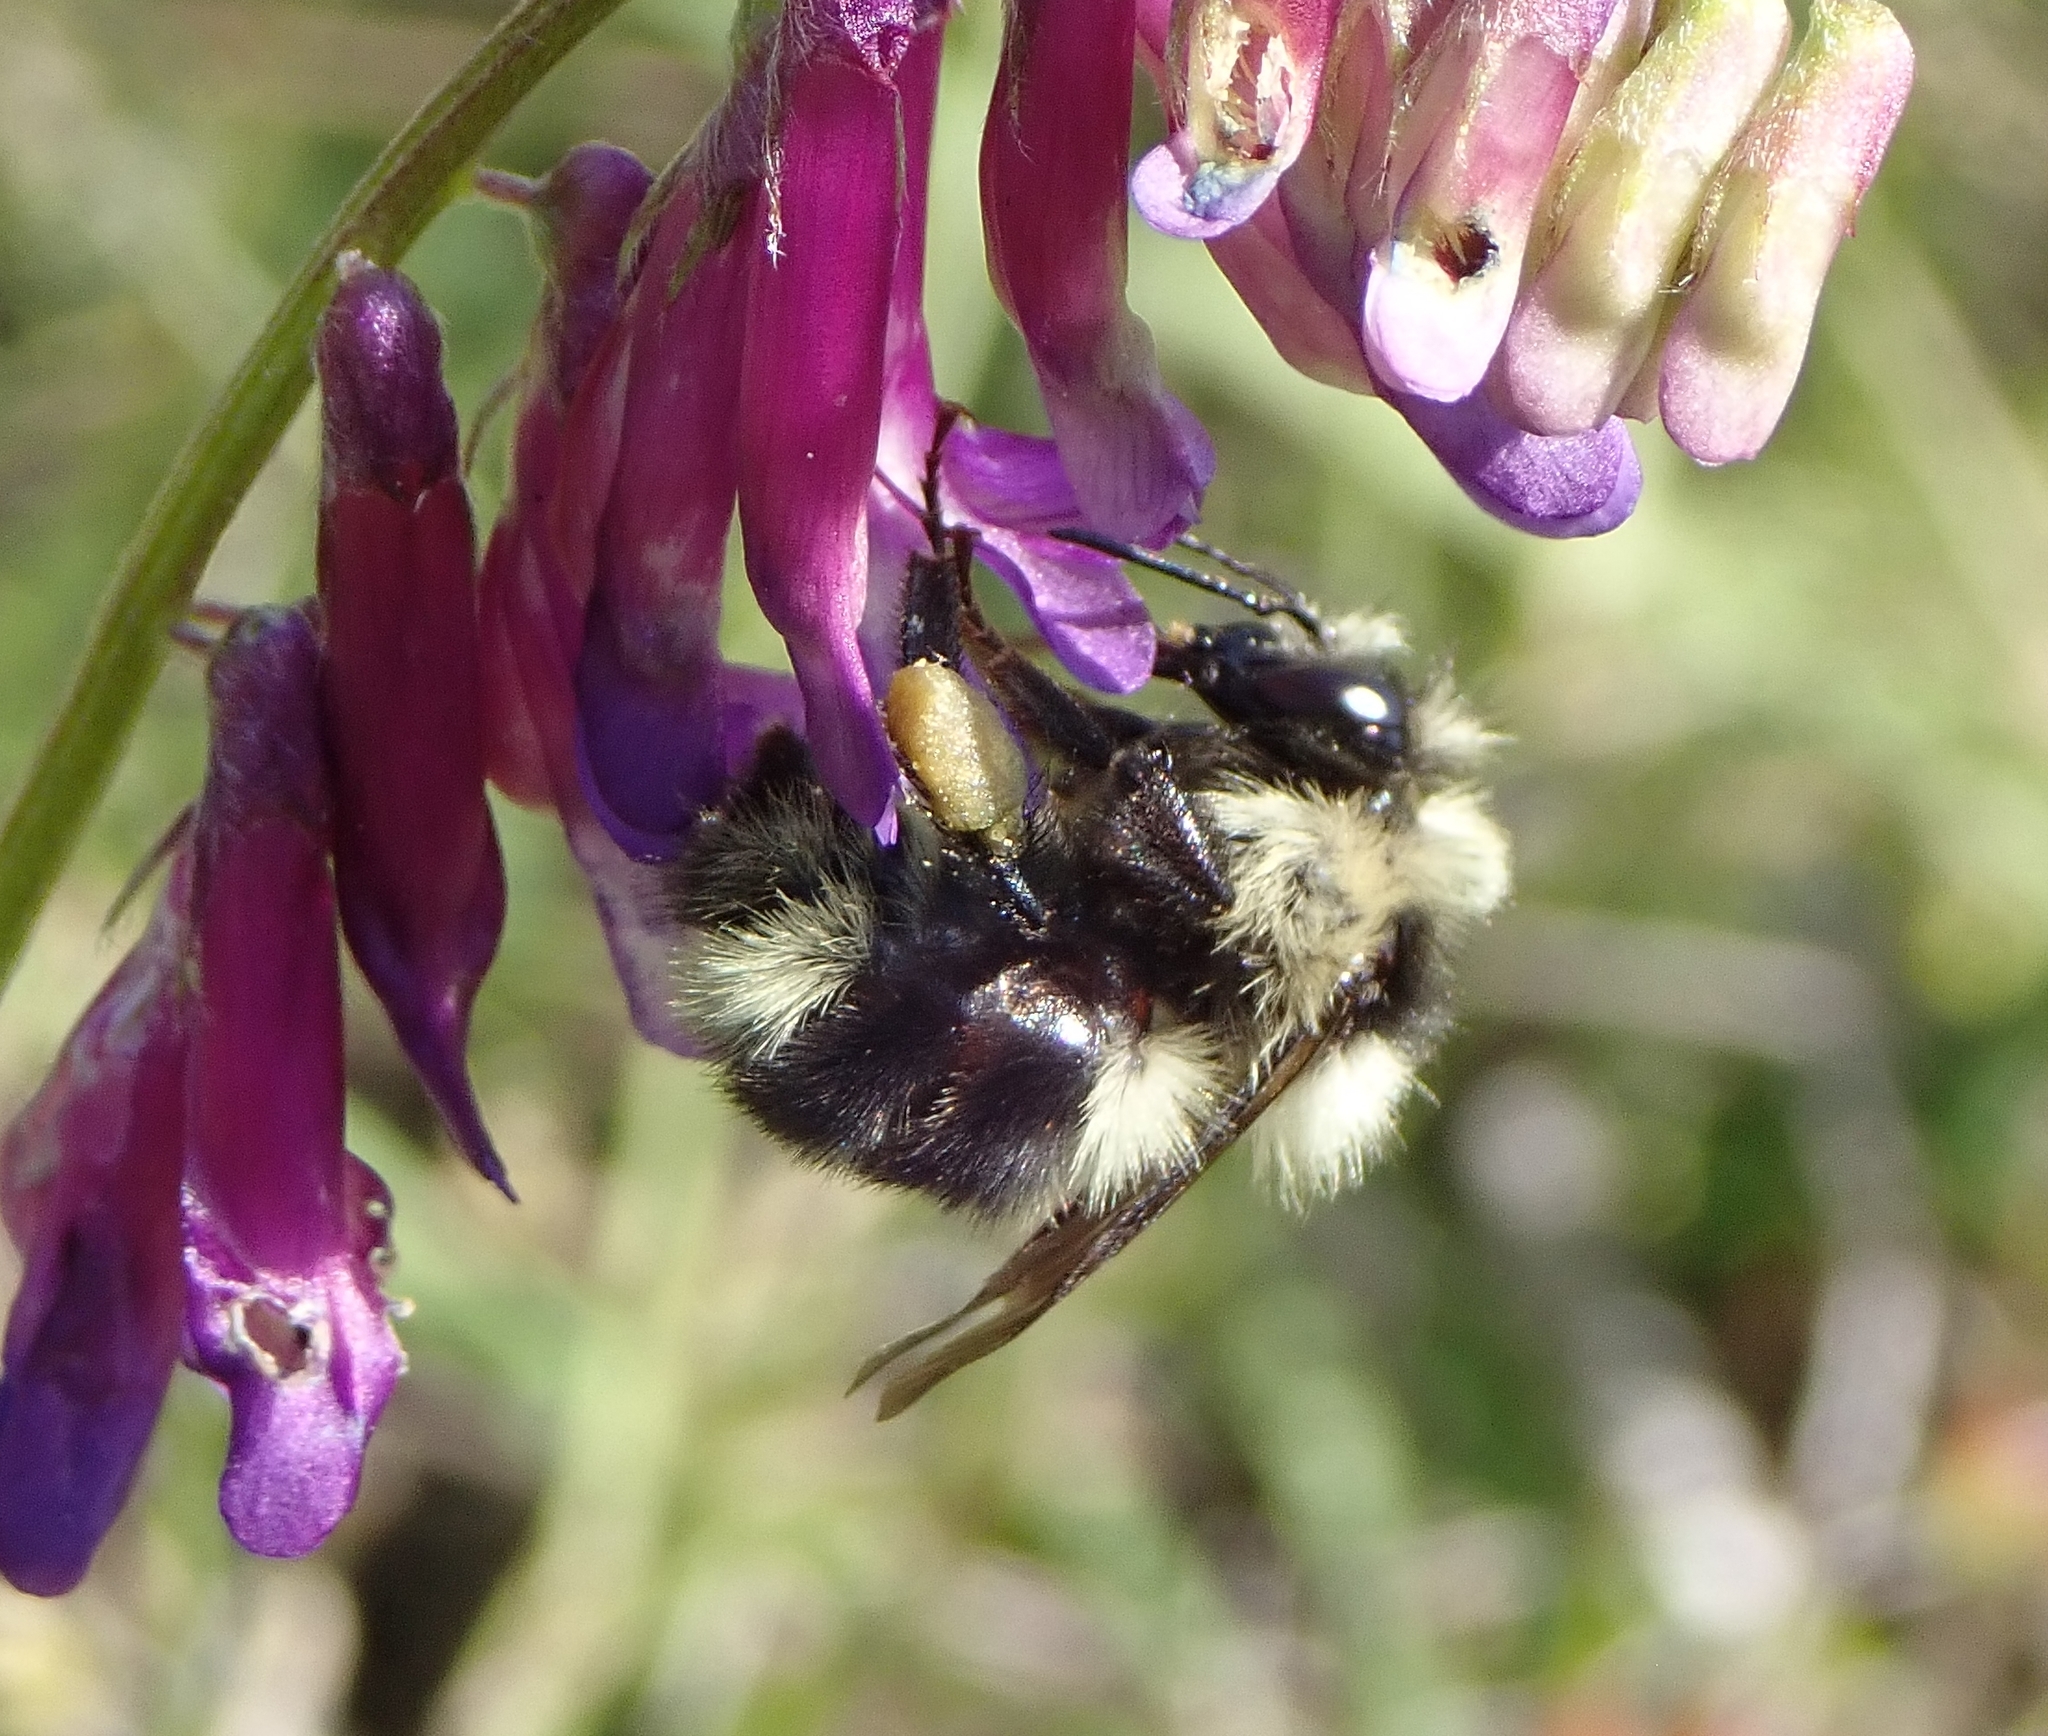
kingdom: Animalia
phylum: Arthropoda
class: Insecta
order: Hymenoptera
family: Apidae
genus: Bombus
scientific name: Bombus melanopygus
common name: Black tail bumble bee
